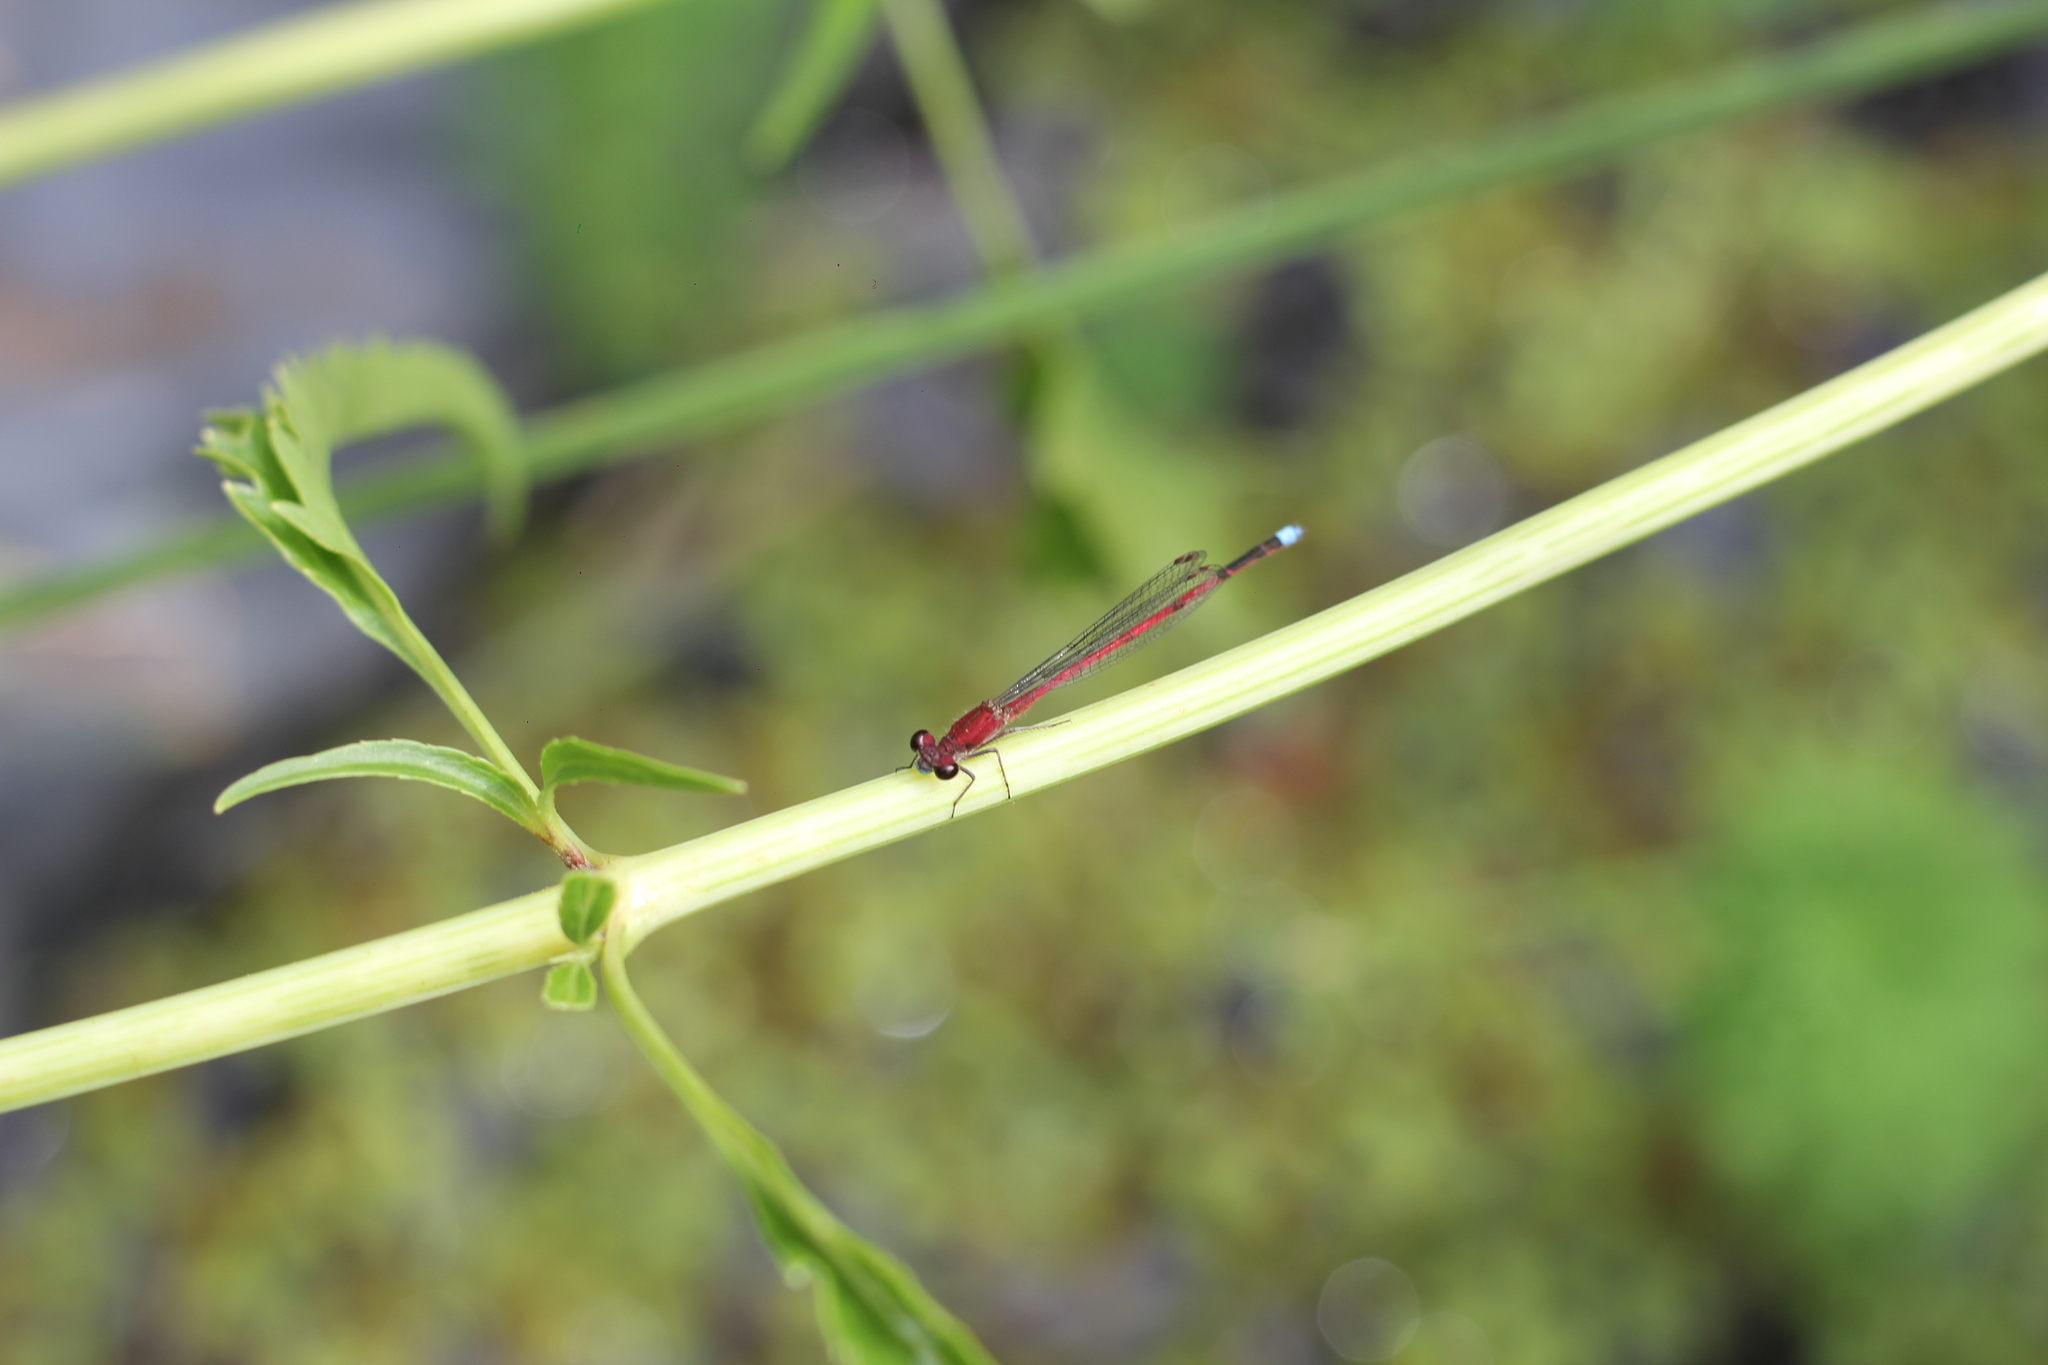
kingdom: Animalia
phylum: Arthropoda
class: Insecta
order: Odonata
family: Coenagrionidae
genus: Oxyagrion
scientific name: Oxyagrion terminale
